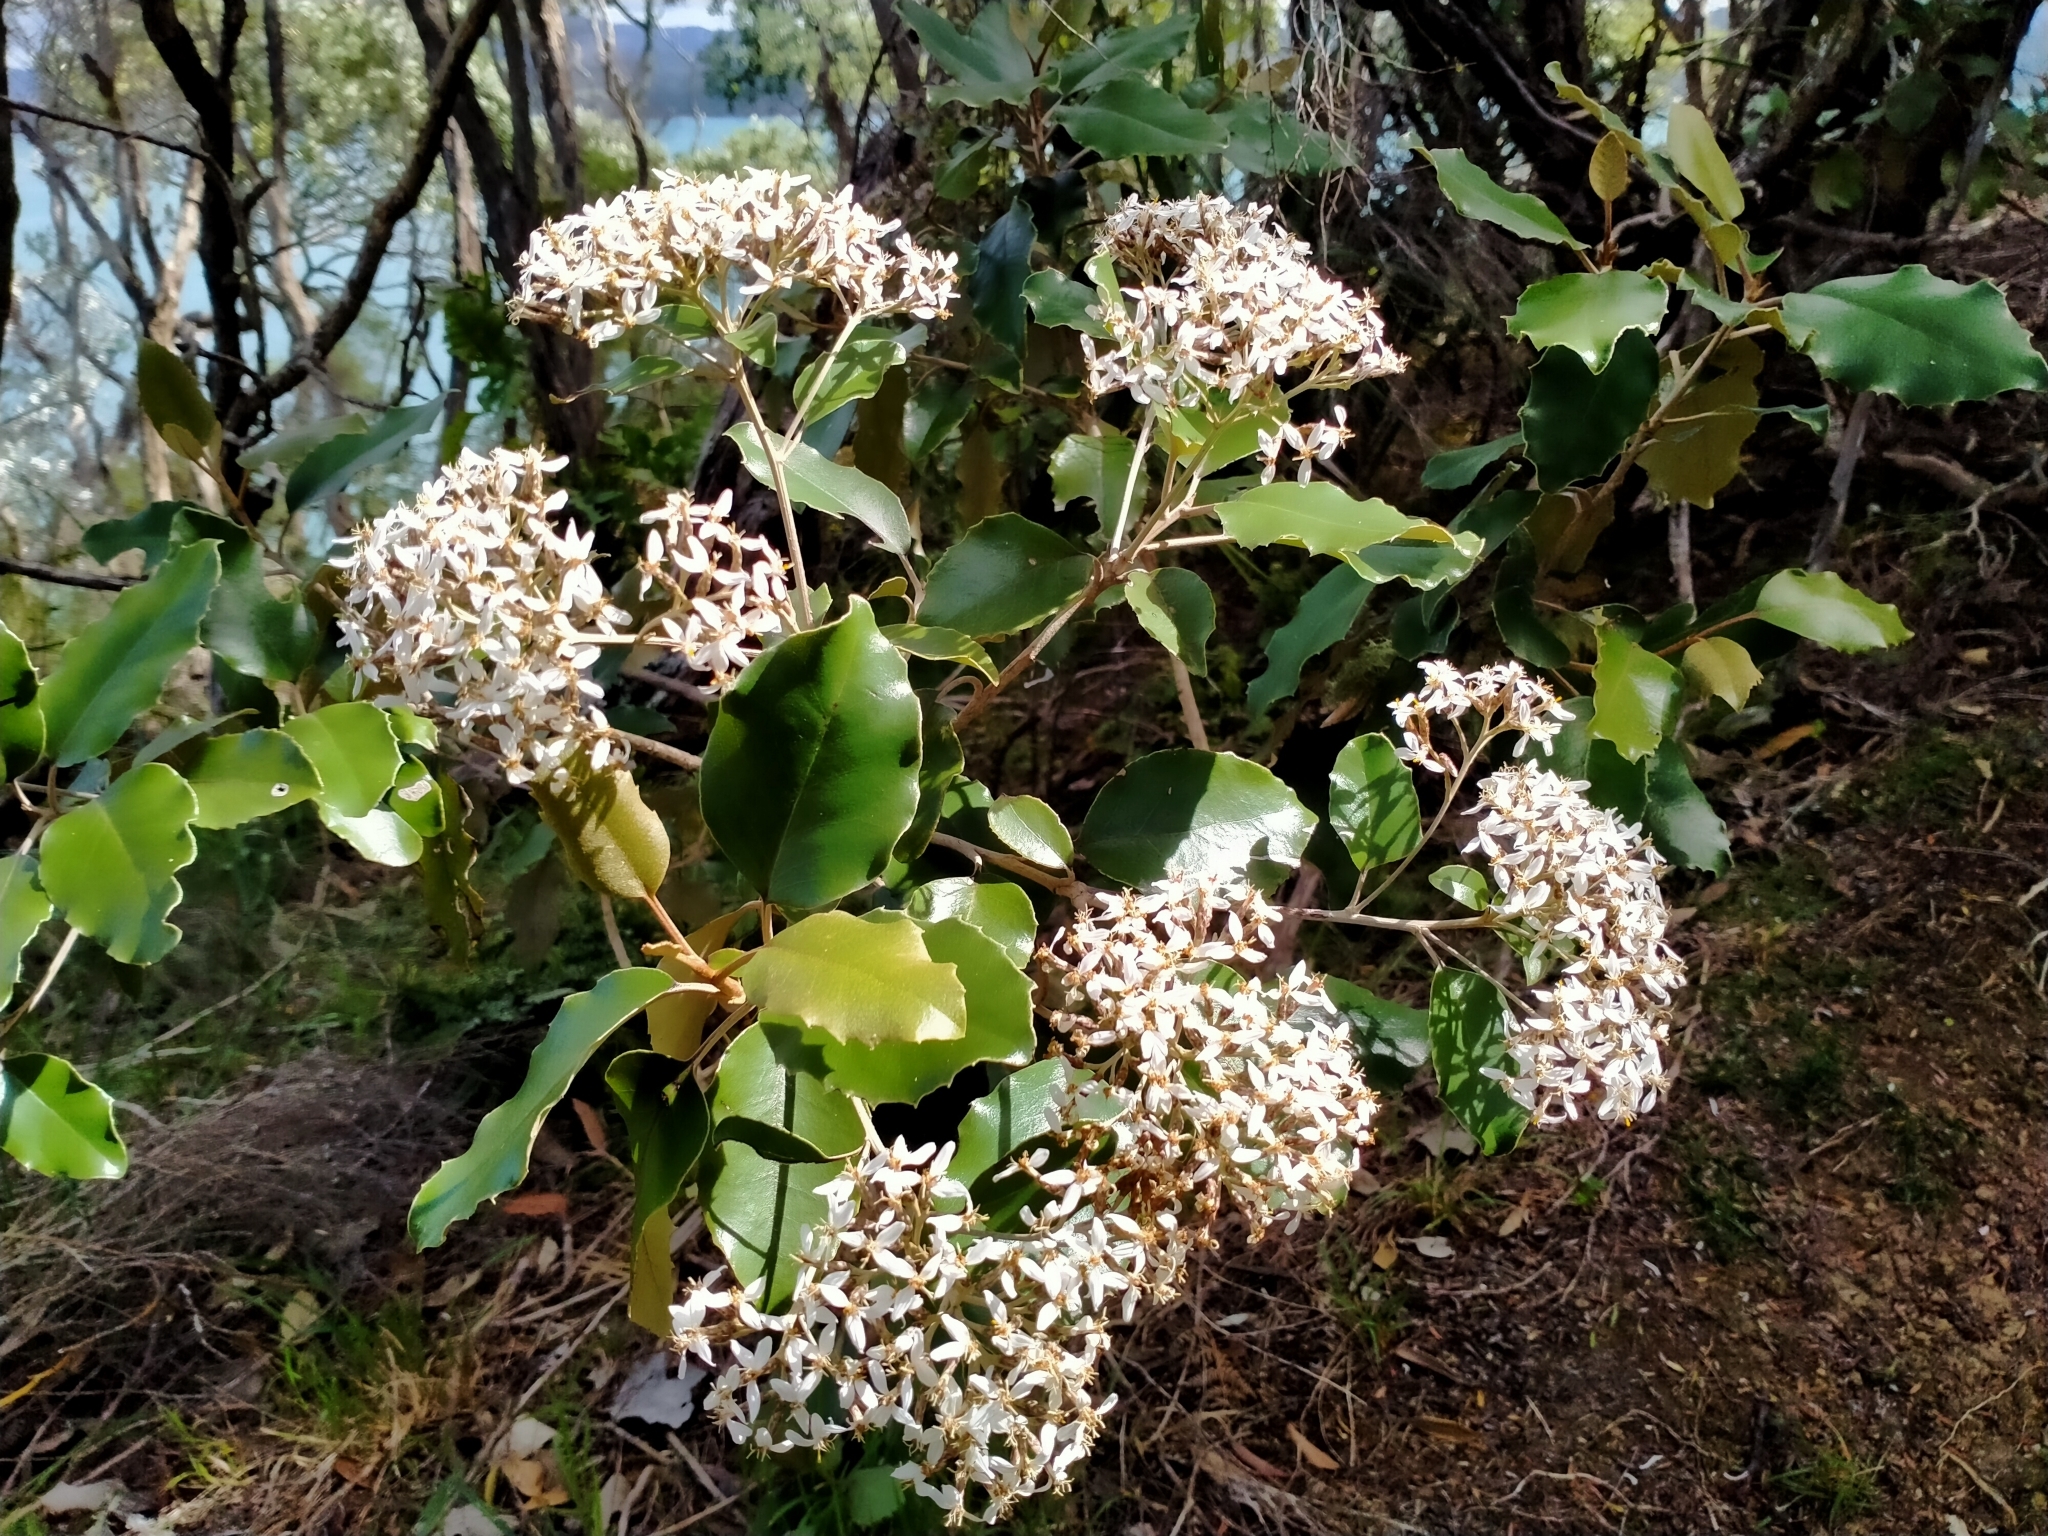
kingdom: Plantae
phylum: Tracheophyta
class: Magnoliopsida
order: Asterales
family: Asteraceae
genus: Olearia
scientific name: Olearia furfuracea
